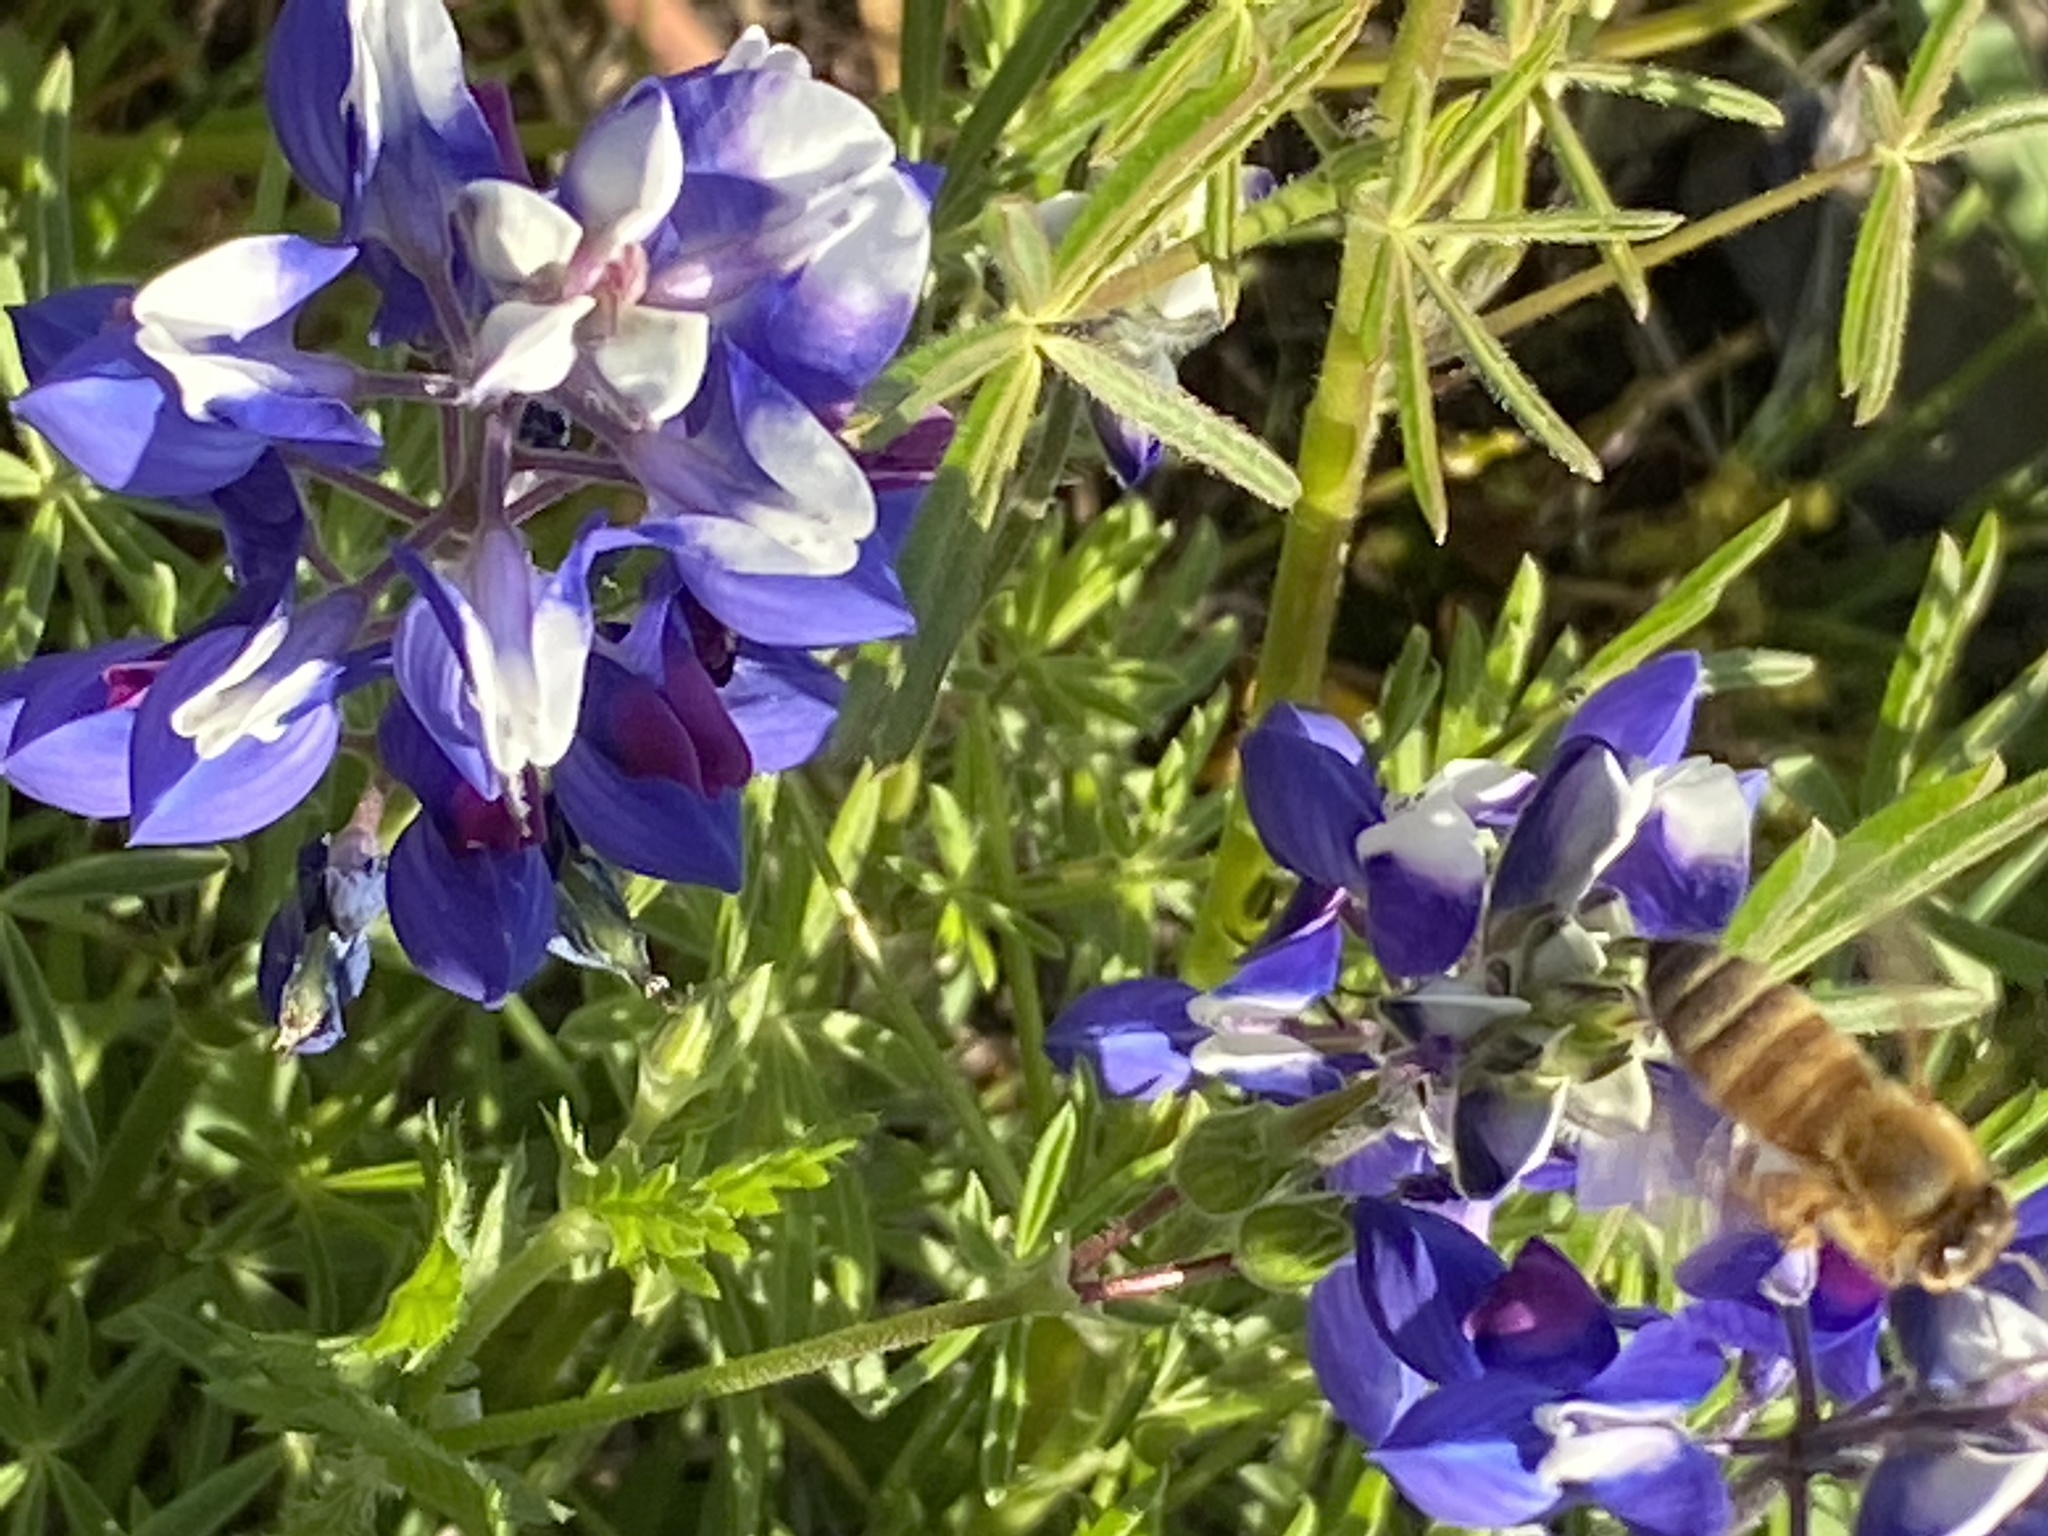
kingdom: Plantae
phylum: Tracheophyta
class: Magnoliopsida
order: Fabales
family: Fabaceae
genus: Lupinus
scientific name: Lupinus nanus
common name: Orean blue lupin
